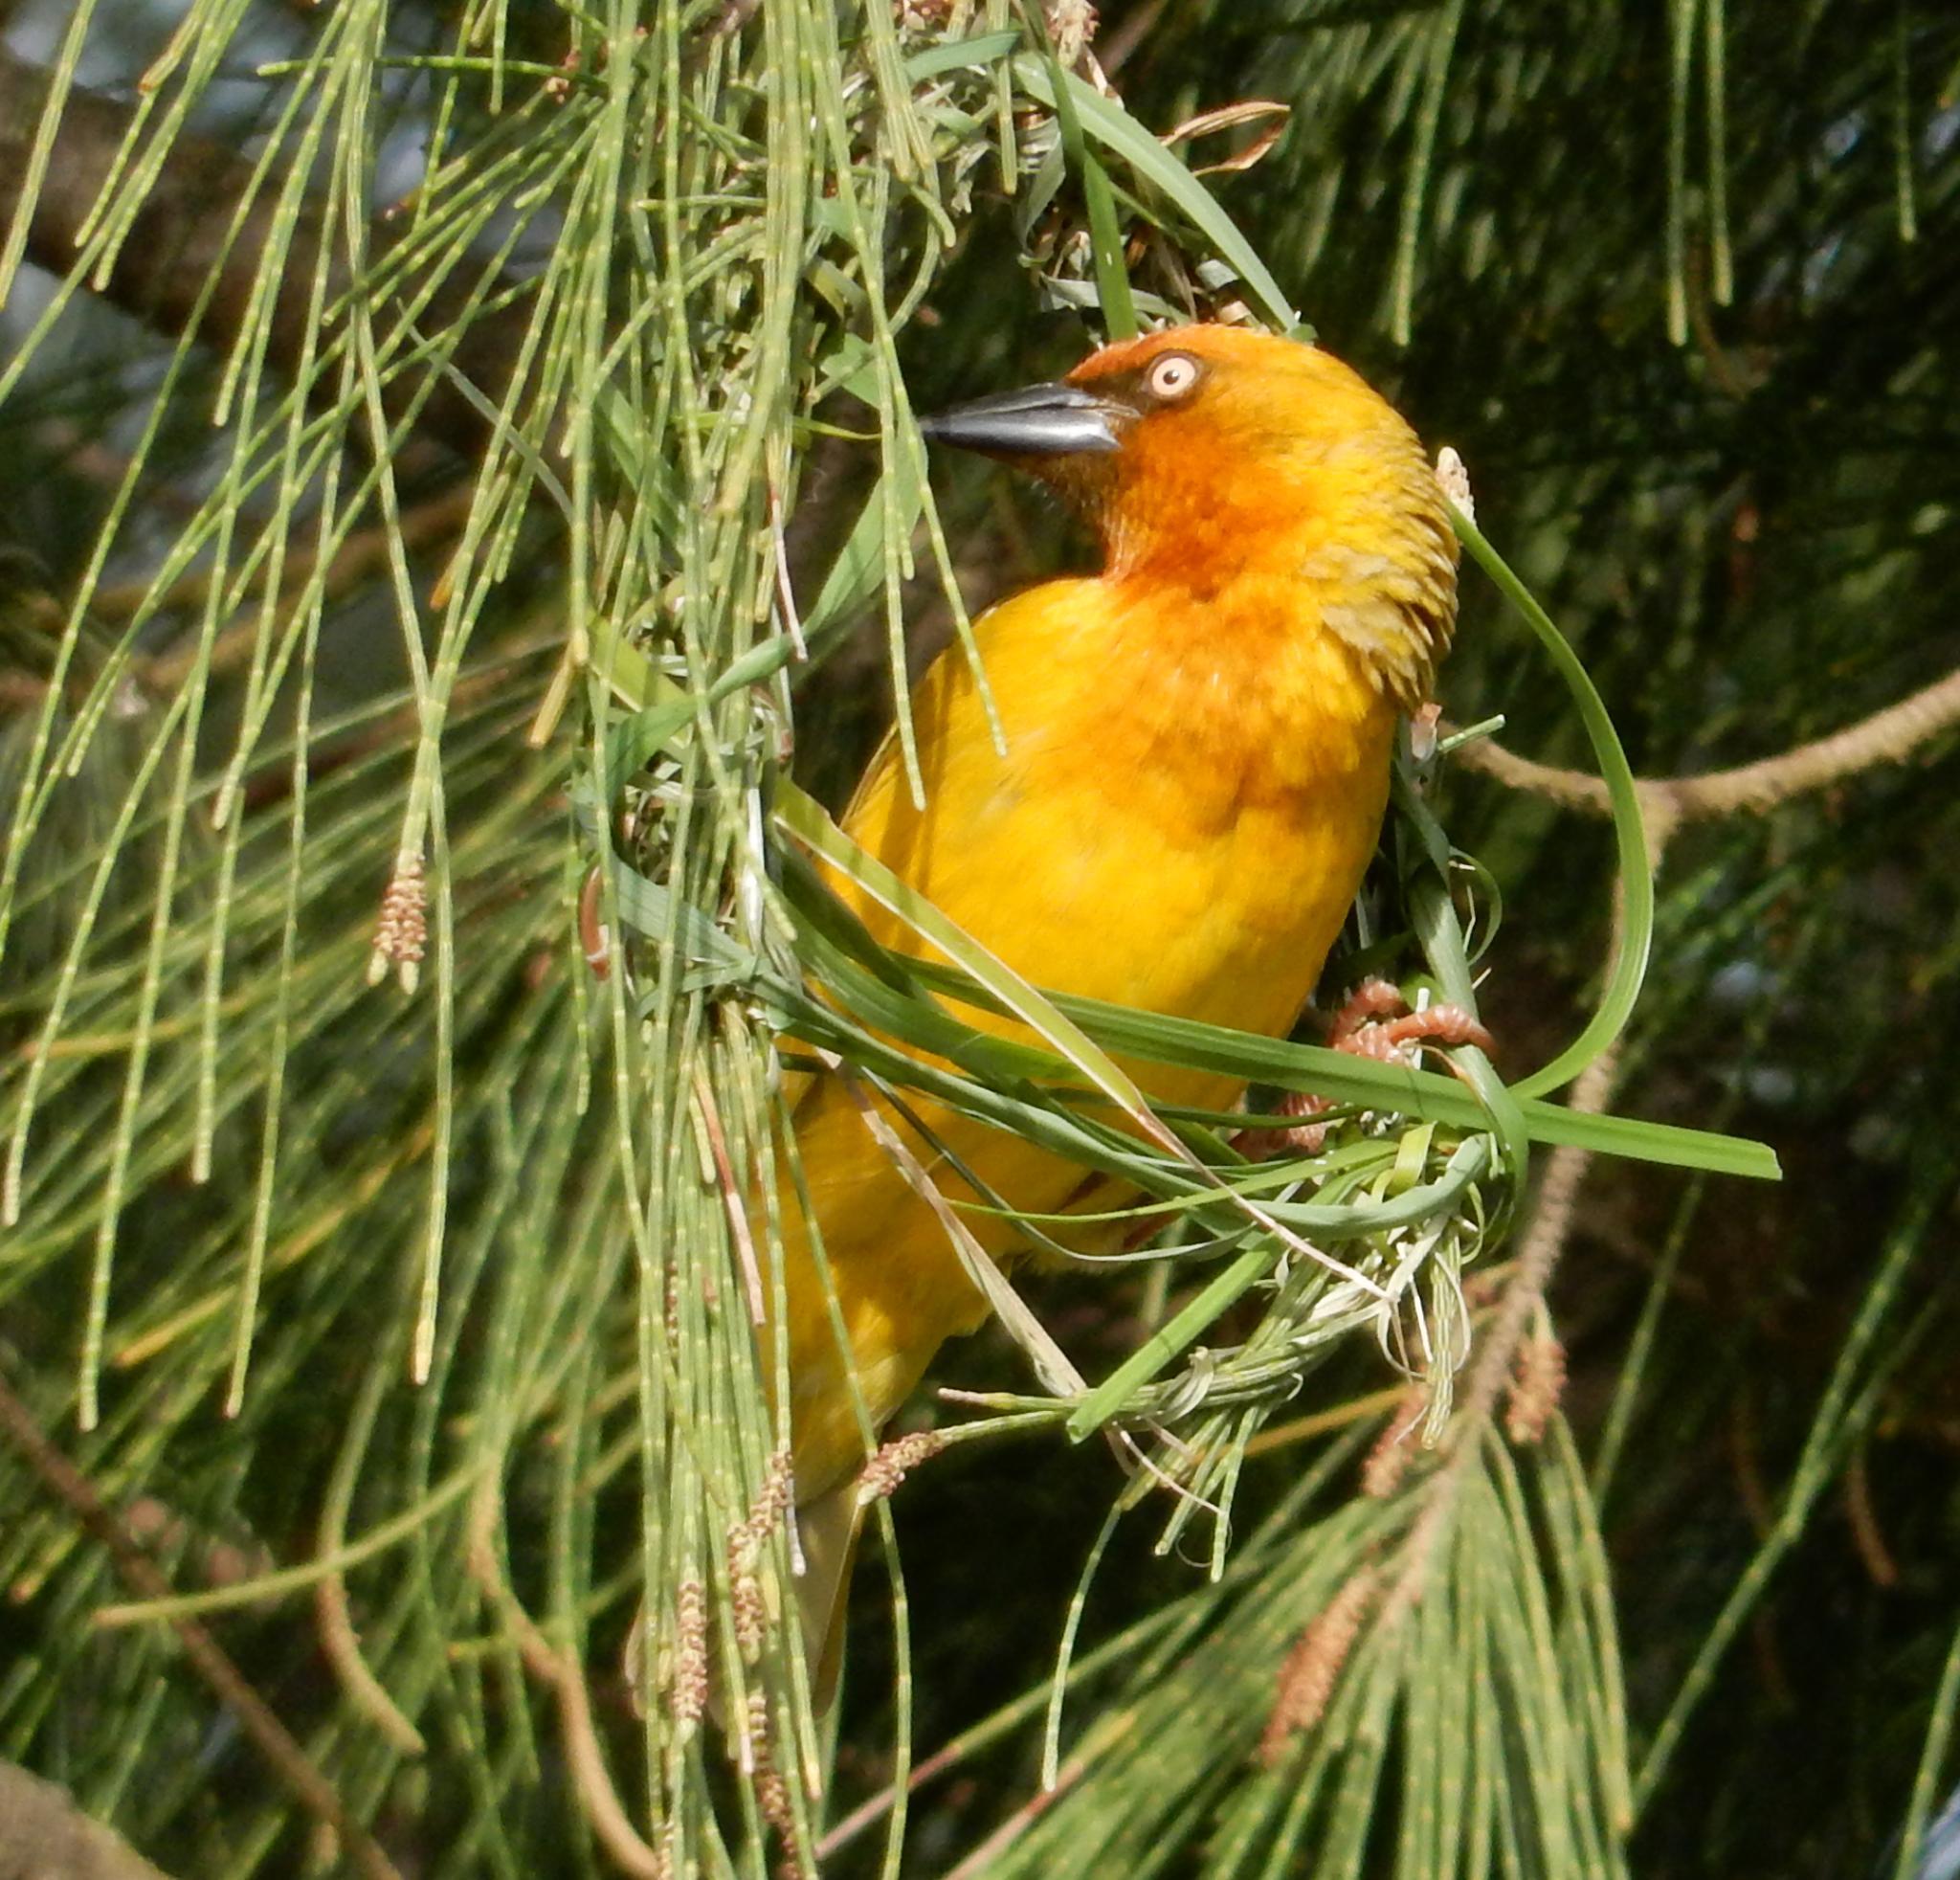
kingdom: Animalia
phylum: Chordata
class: Aves
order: Passeriformes
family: Ploceidae
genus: Ploceus
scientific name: Ploceus capensis
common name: Cape weaver
